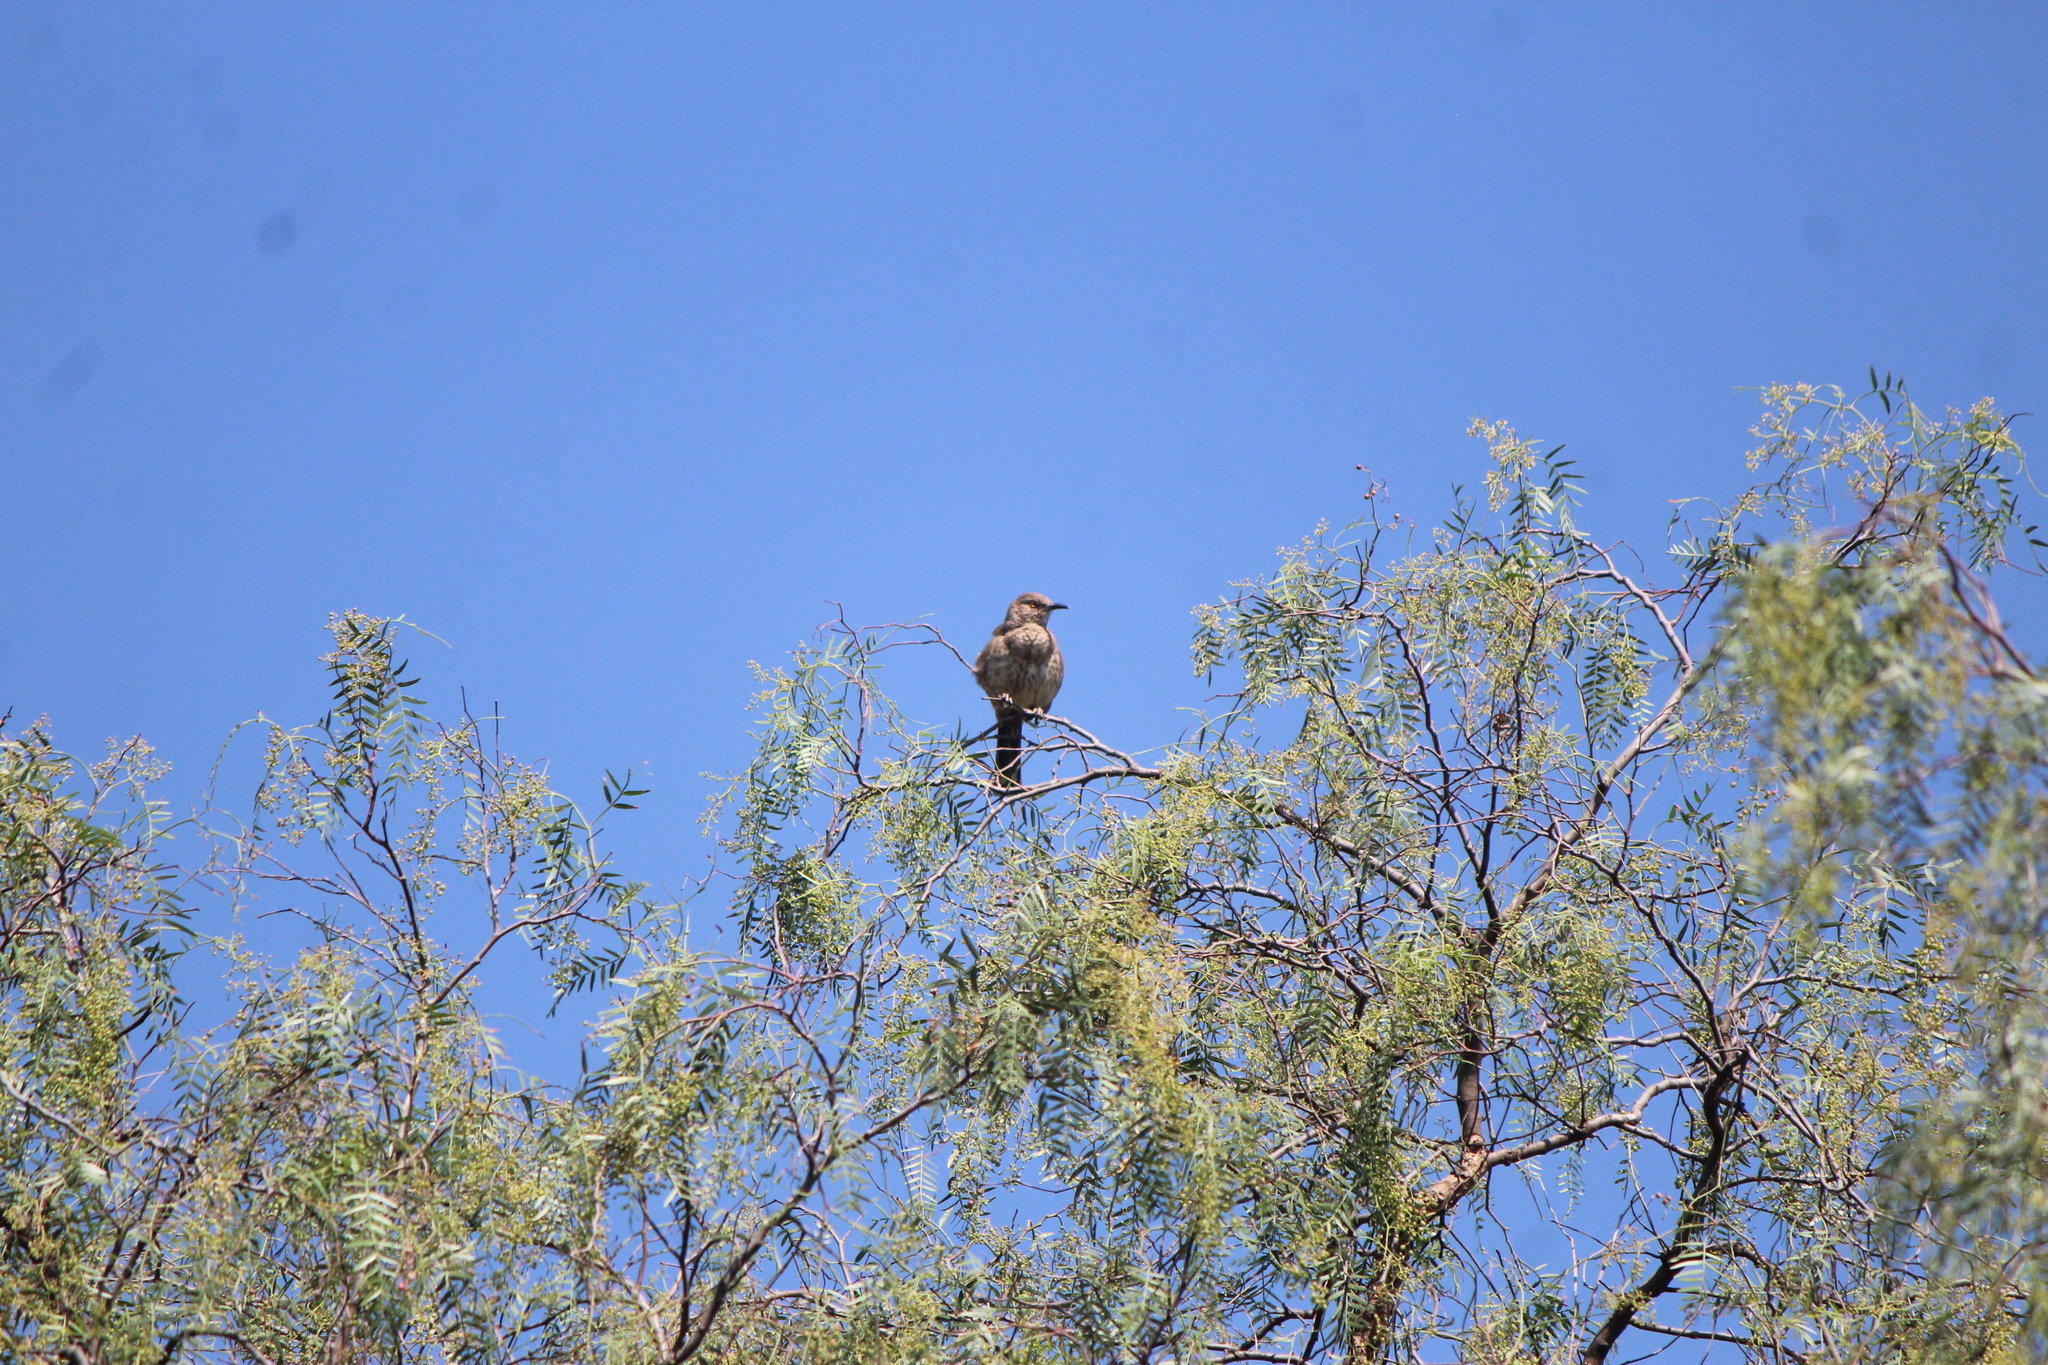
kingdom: Animalia
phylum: Chordata
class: Aves
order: Passeriformes
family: Mimidae
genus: Toxostoma
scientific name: Toxostoma curvirostre
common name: Curve-billed thrasher
